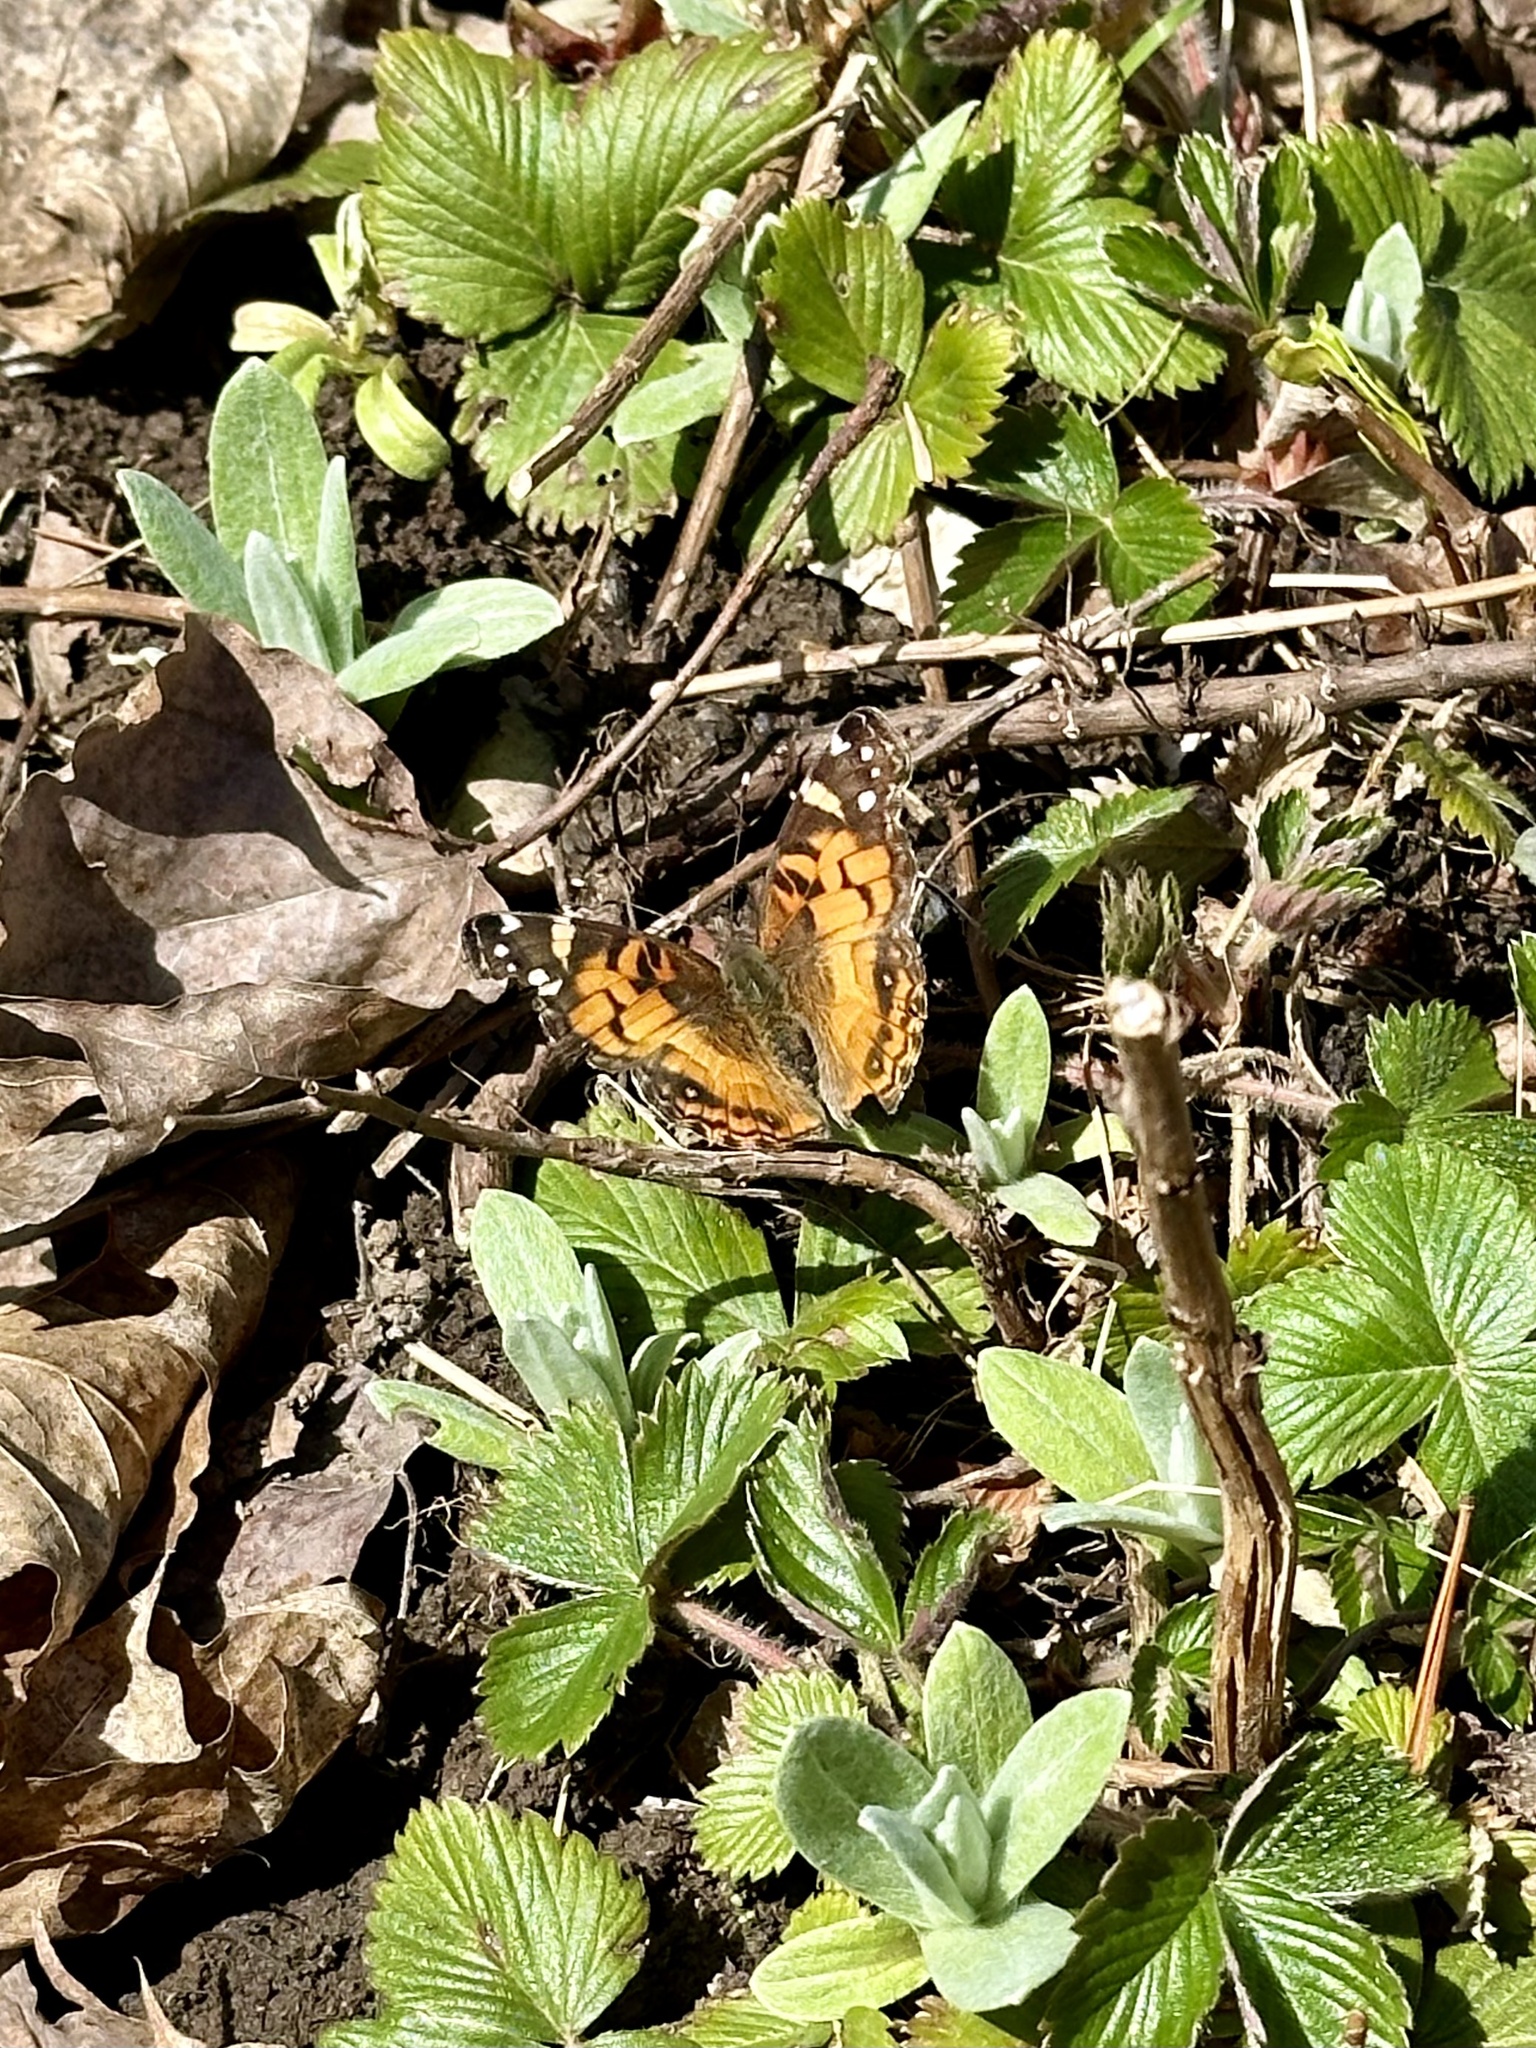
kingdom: Animalia
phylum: Arthropoda
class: Insecta
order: Lepidoptera
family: Nymphalidae
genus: Vanessa
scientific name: Vanessa virginiensis
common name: American lady
